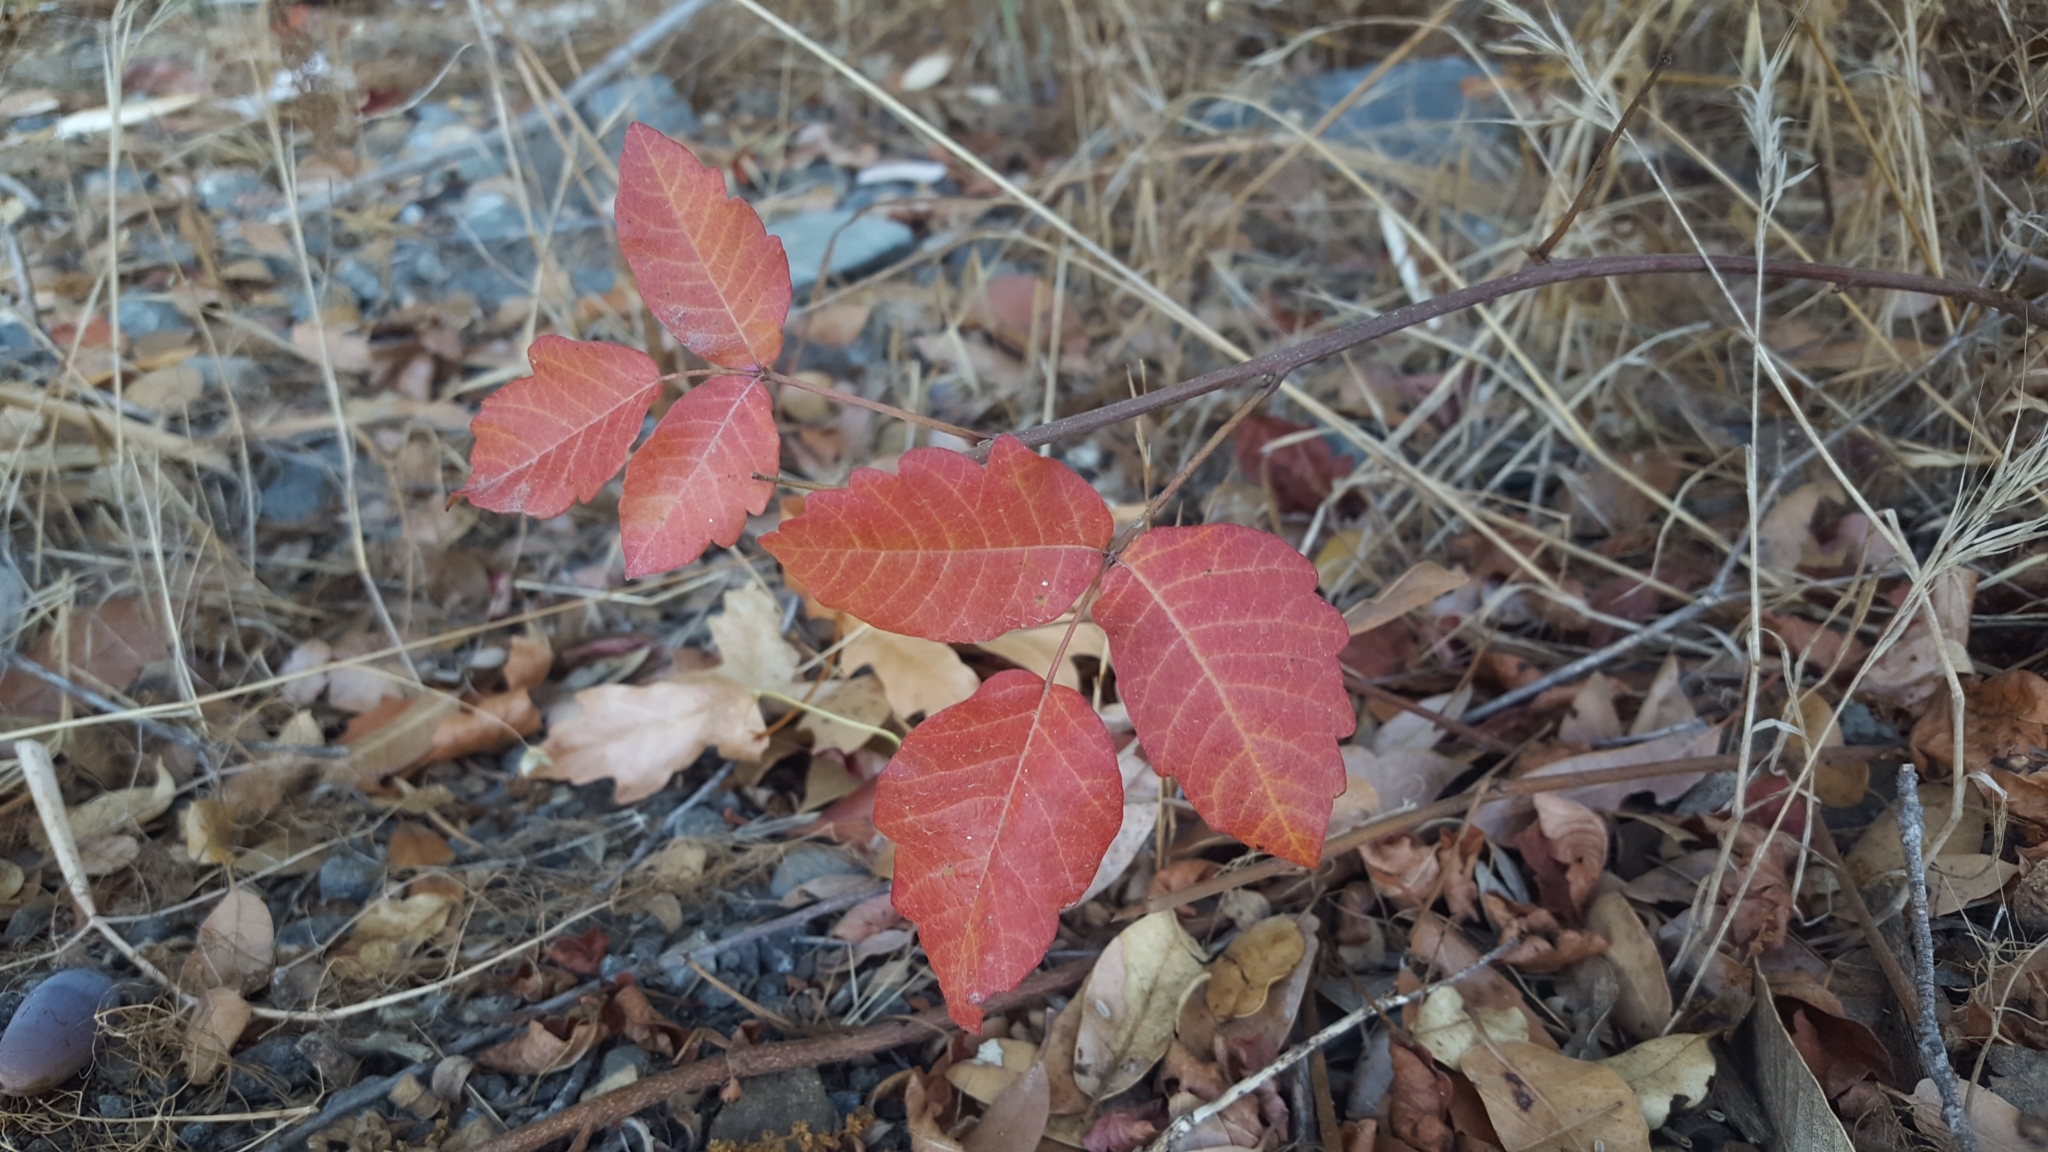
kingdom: Plantae
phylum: Tracheophyta
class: Magnoliopsida
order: Sapindales
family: Anacardiaceae
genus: Toxicodendron
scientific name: Toxicodendron diversilobum
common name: Pacific poison-oak
